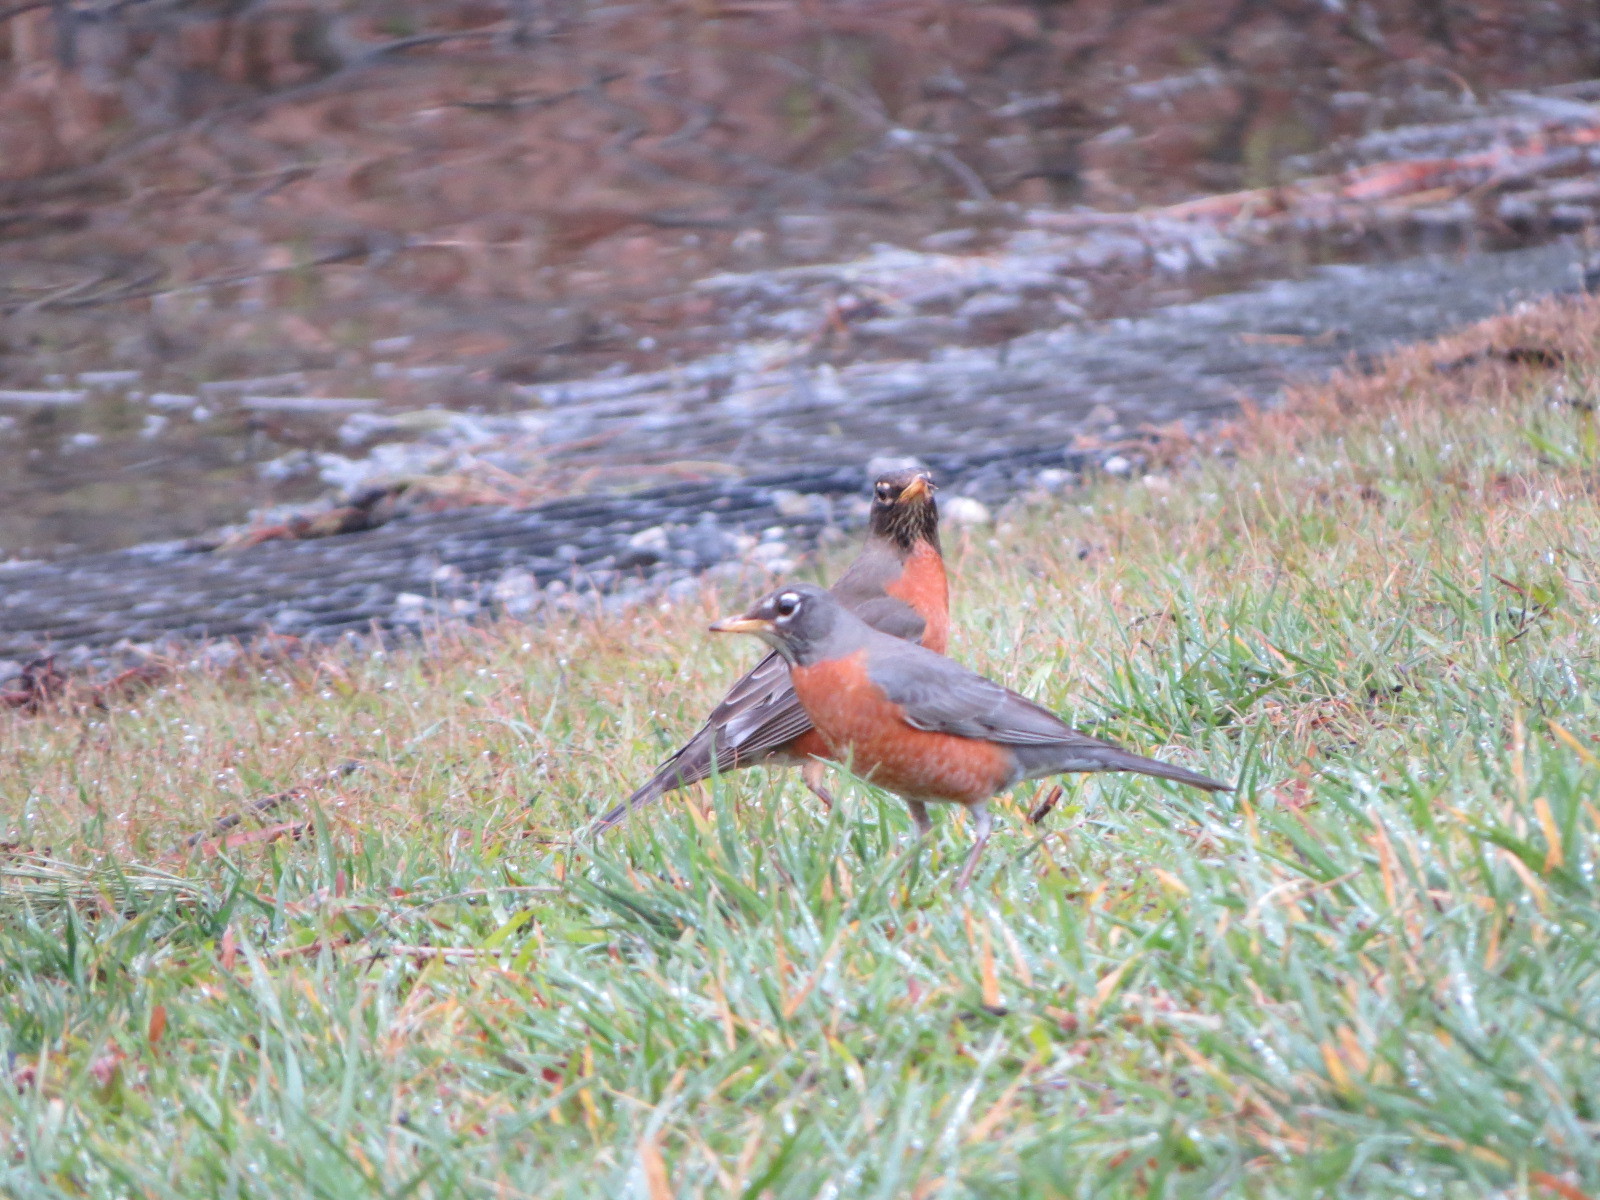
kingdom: Animalia
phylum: Chordata
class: Aves
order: Passeriformes
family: Turdidae
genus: Turdus
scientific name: Turdus migratorius
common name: American robin
